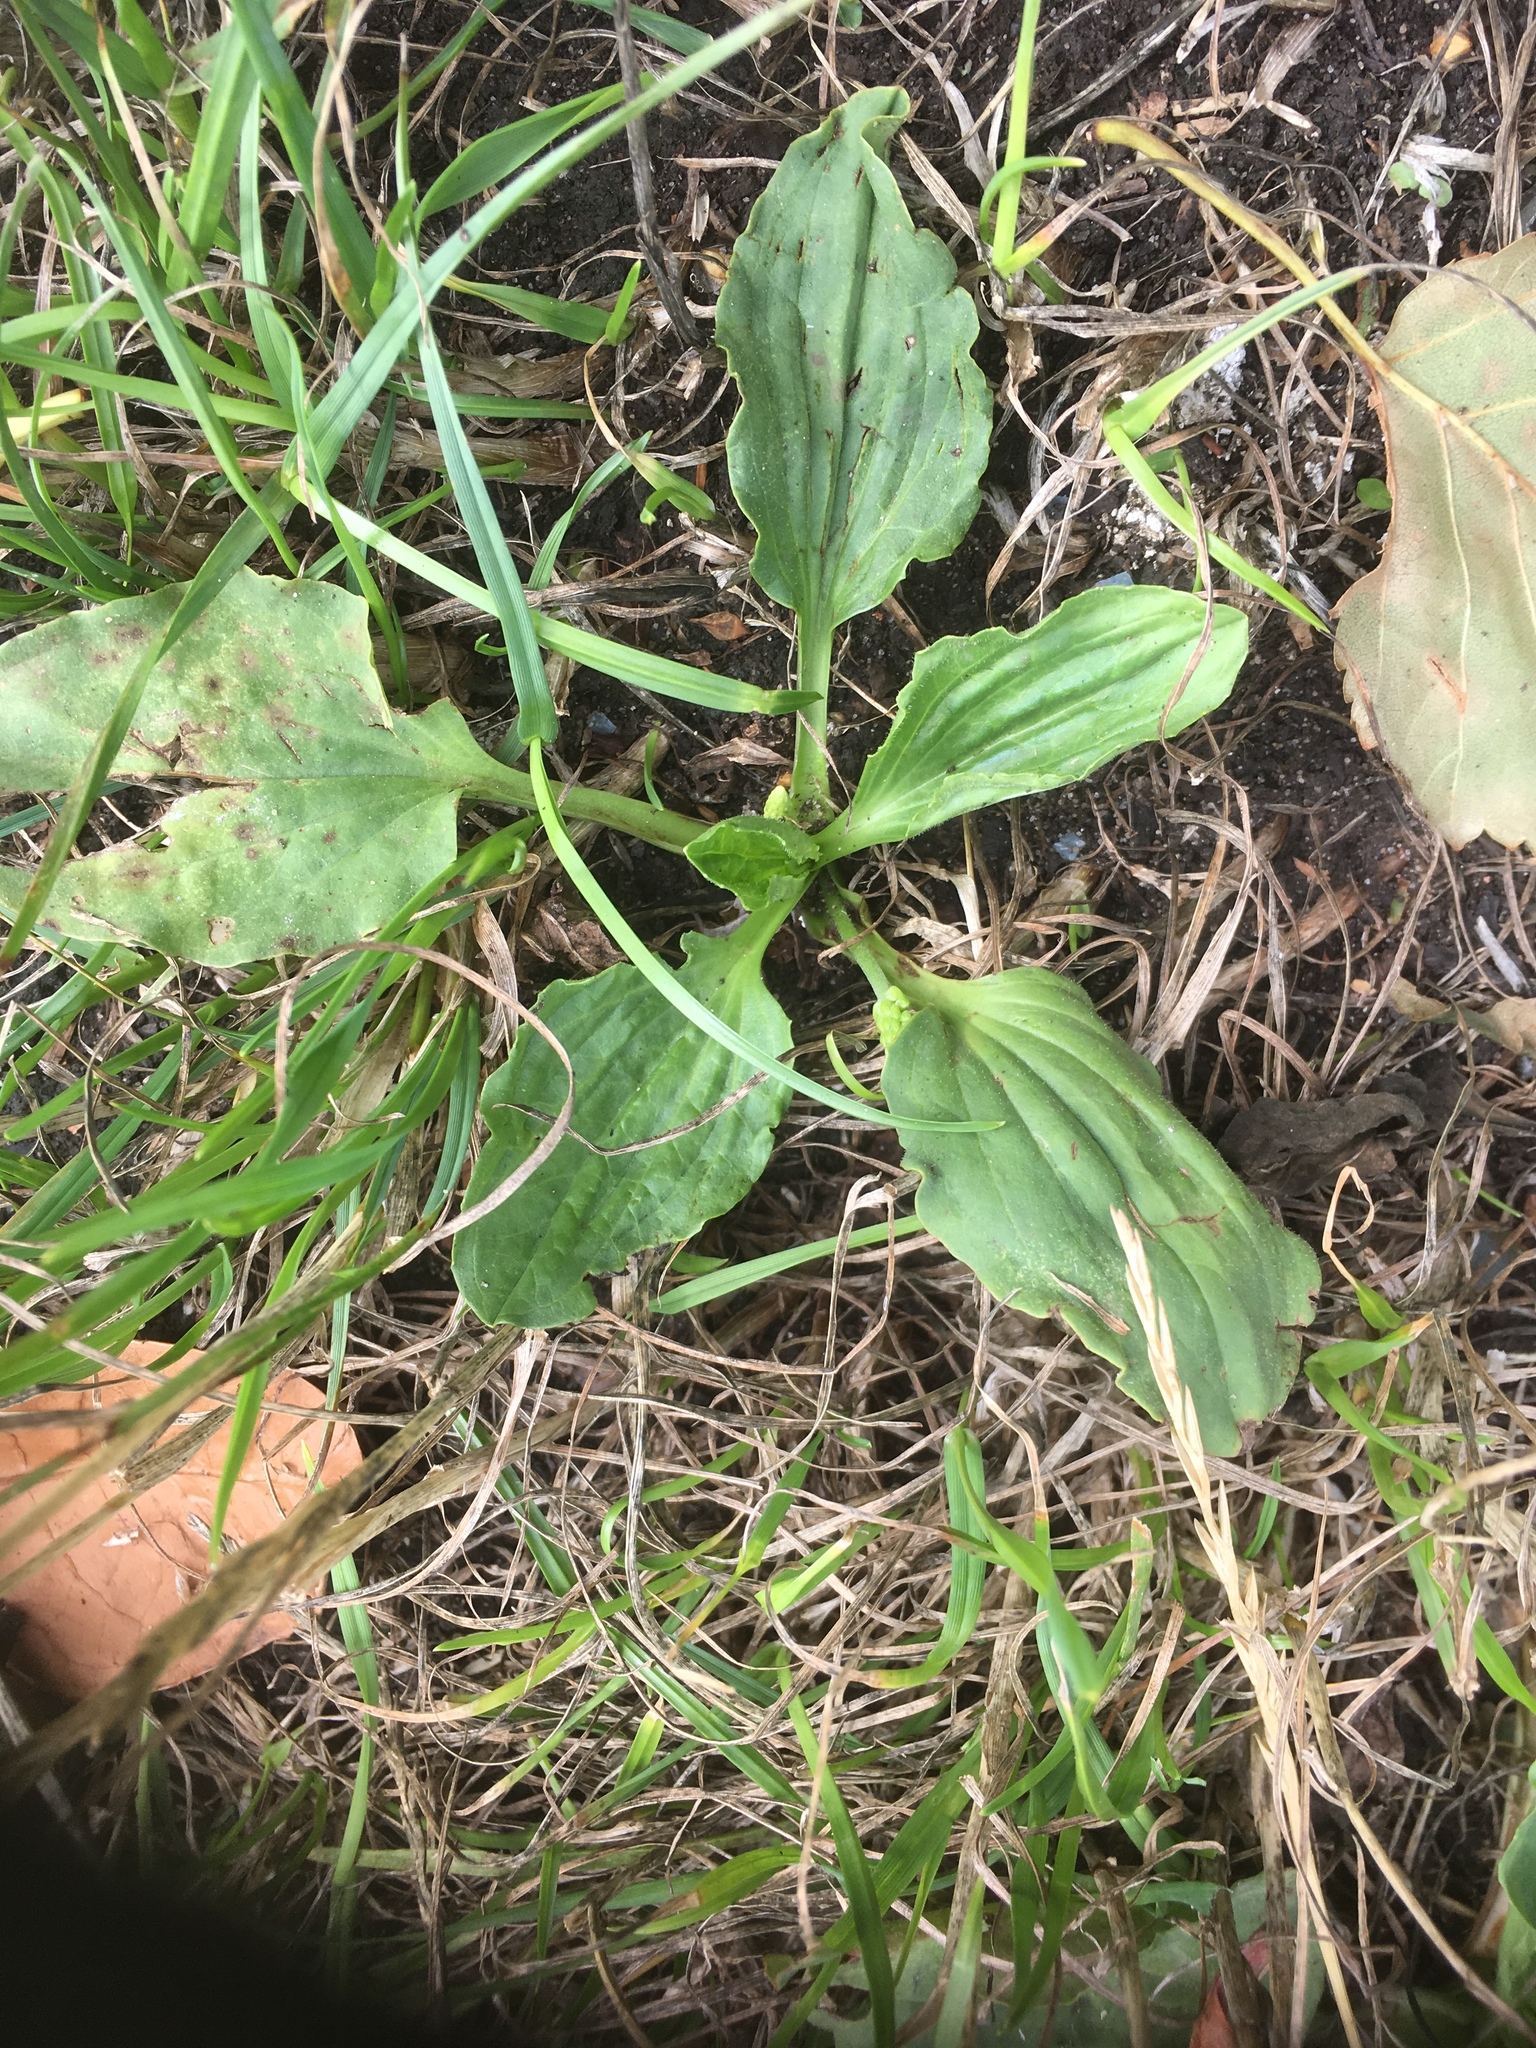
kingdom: Plantae
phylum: Tracheophyta
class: Magnoliopsida
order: Lamiales
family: Plantaginaceae
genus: Plantago
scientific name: Plantago major
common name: Common plantain
